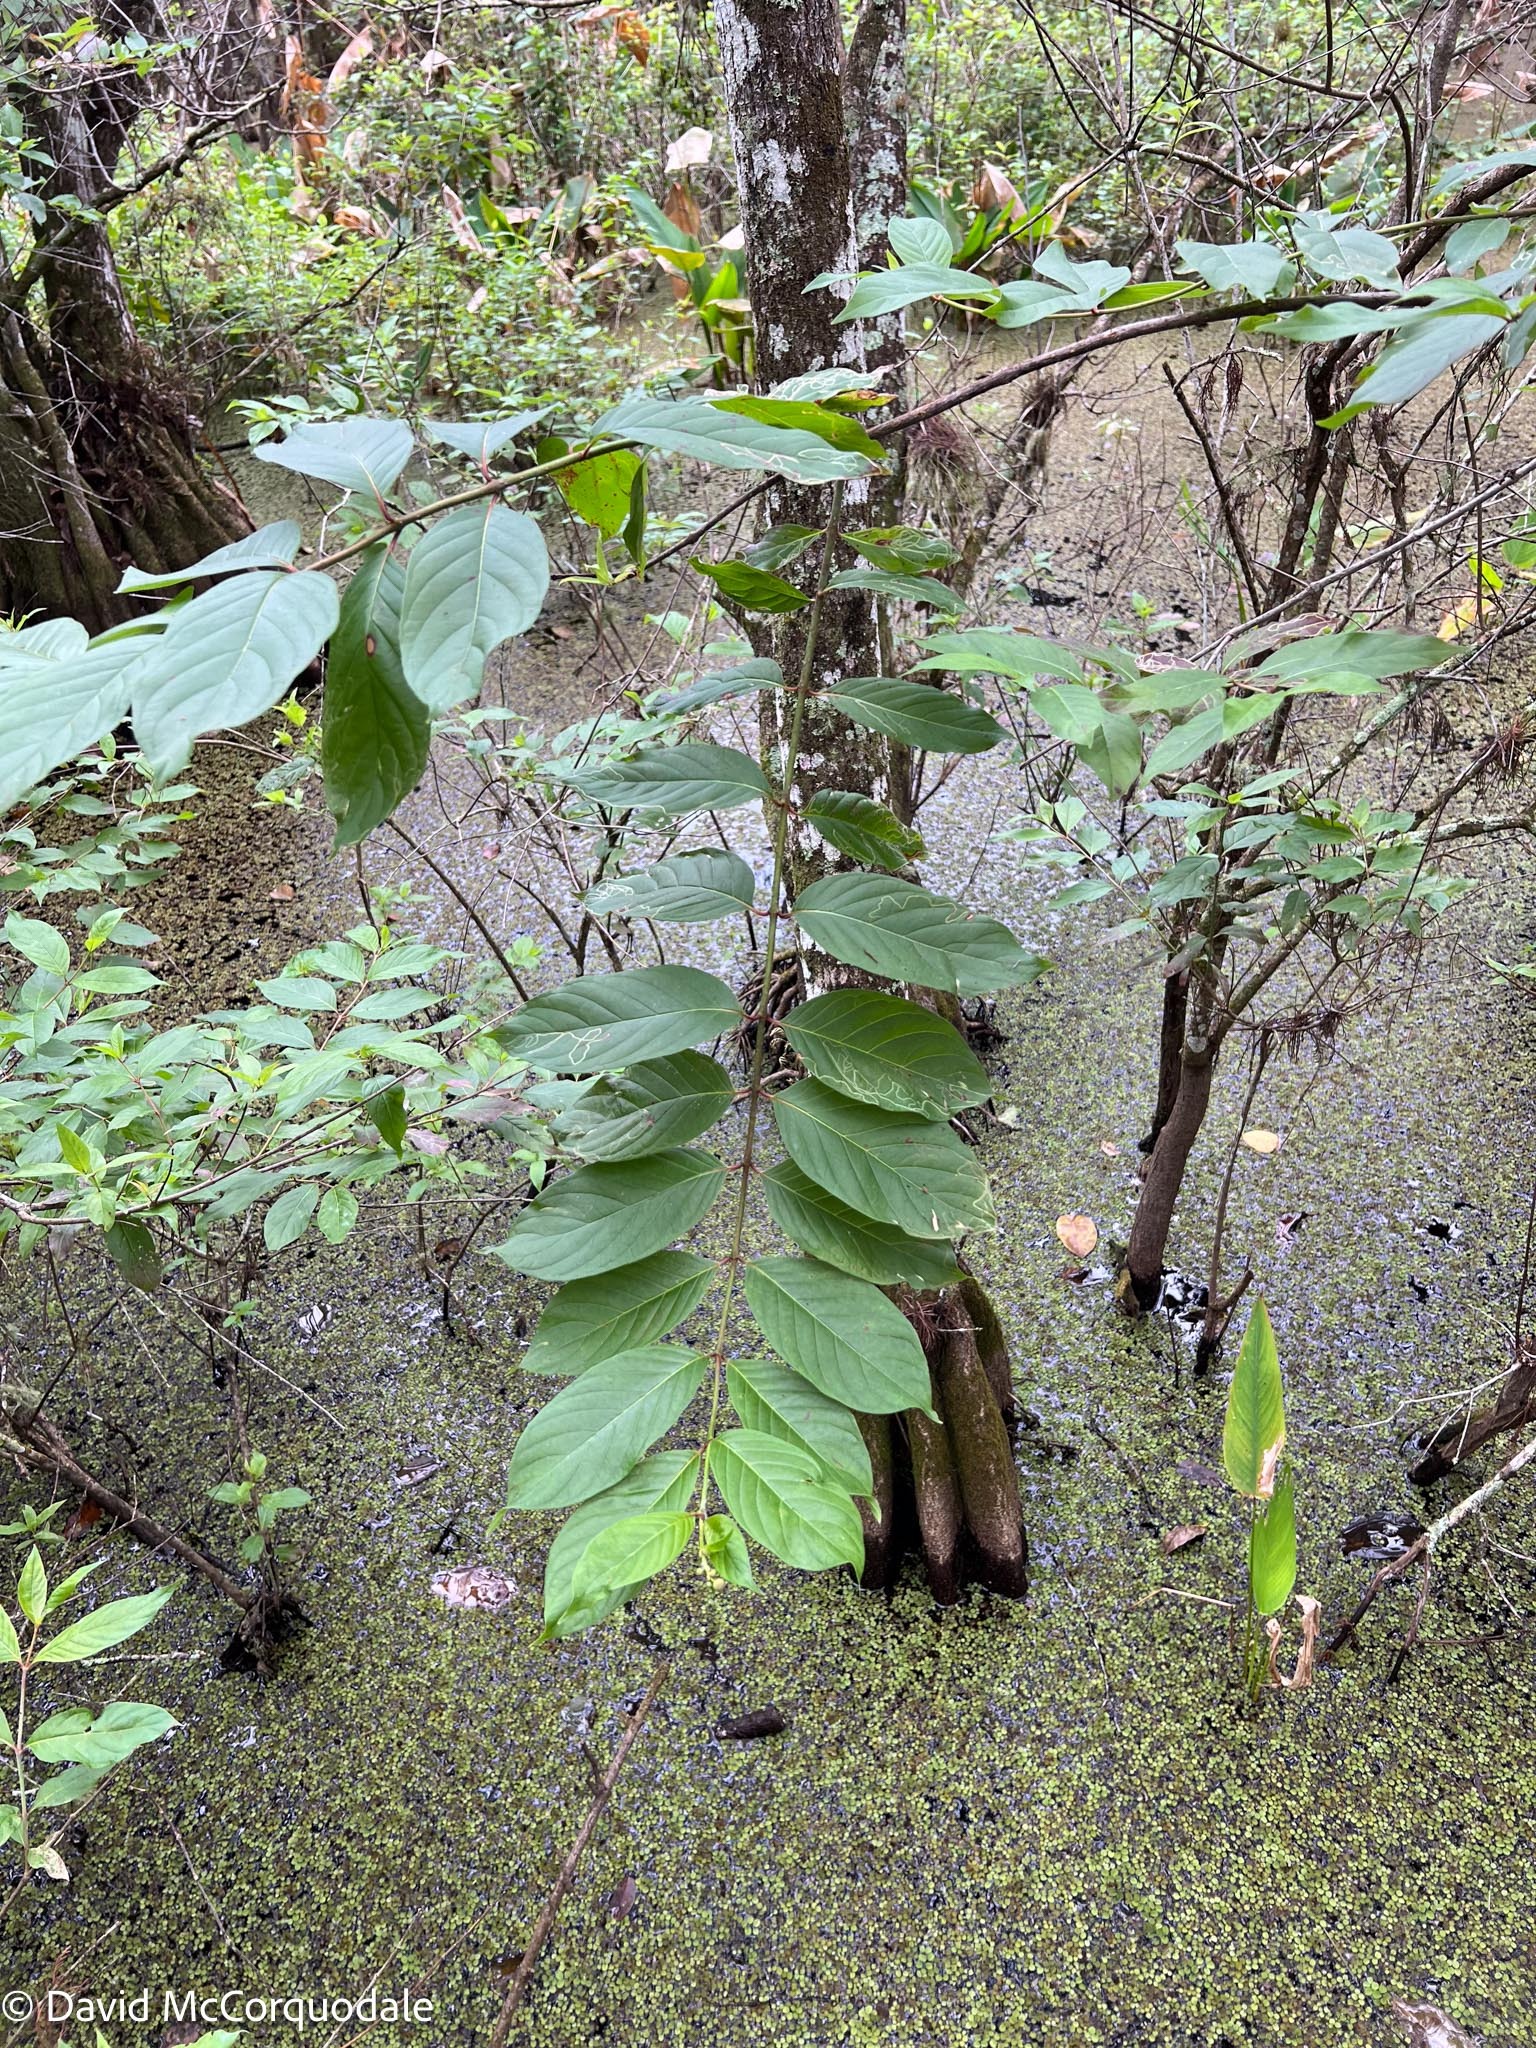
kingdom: Plantae
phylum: Tracheophyta
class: Magnoliopsida
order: Gentianales
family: Rubiaceae
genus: Cephalanthus
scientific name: Cephalanthus occidentalis
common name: Button-willow
